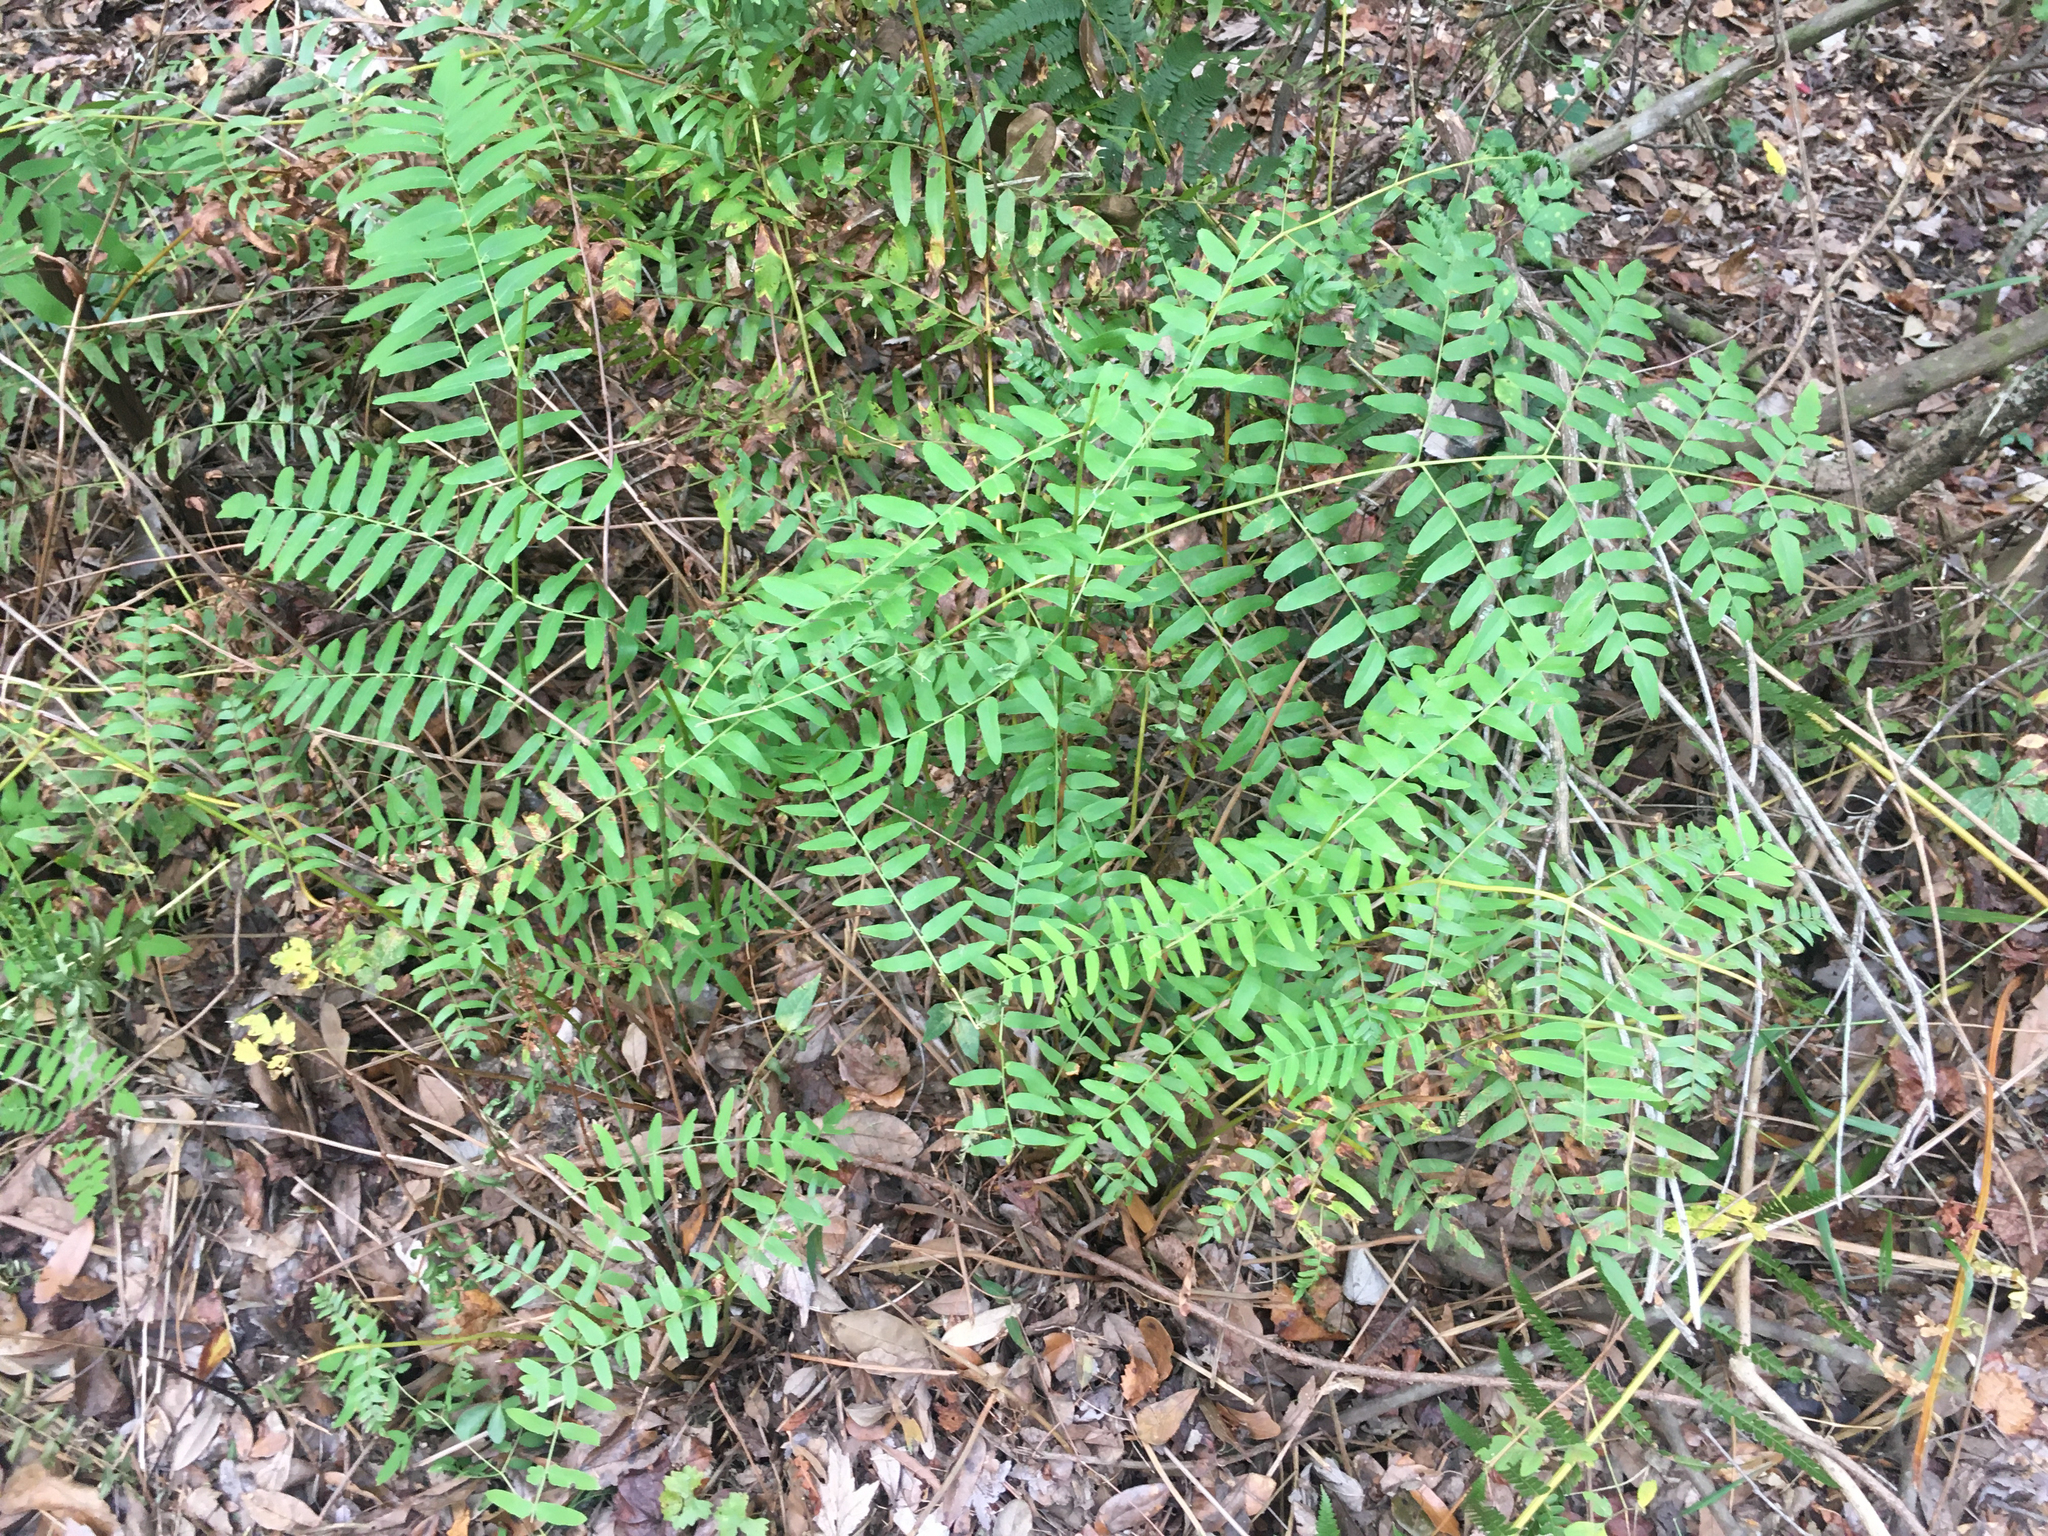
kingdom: Plantae
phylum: Tracheophyta
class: Polypodiopsida
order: Osmundales
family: Osmundaceae
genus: Osmunda
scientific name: Osmunda spectabilis
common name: American royal fern
